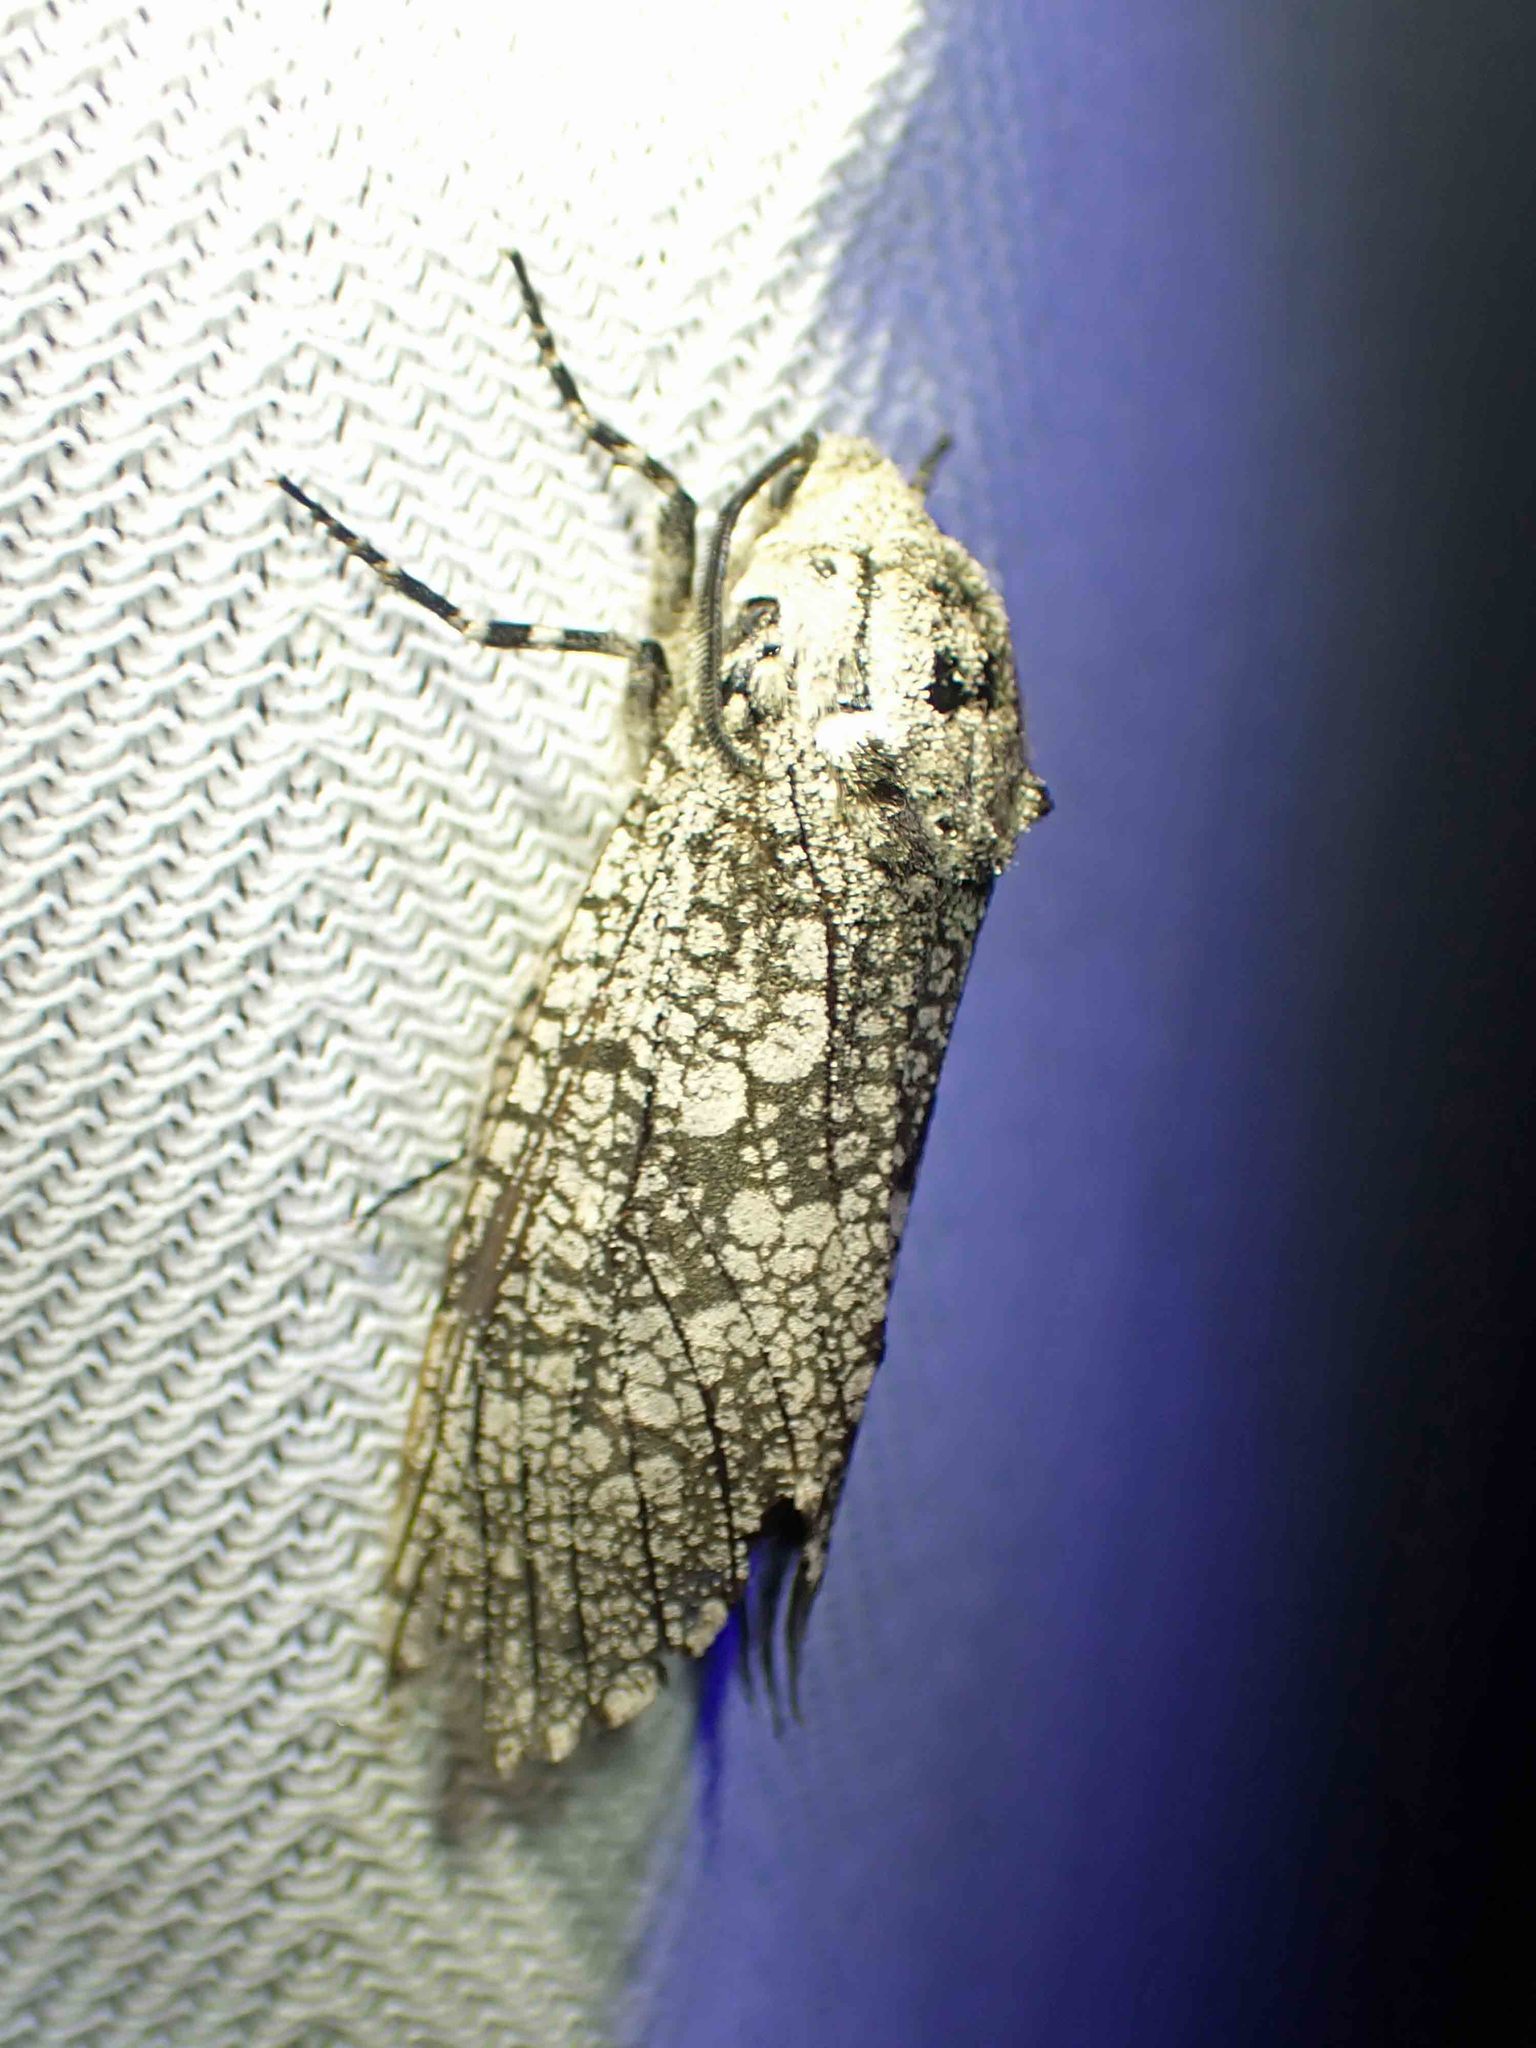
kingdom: Animalia
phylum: Arthropoda
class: Insecta
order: Lepidoptera
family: Cossidae
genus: Prionoxystus
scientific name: Prionoxystus robiniae
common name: Carpenterworm
